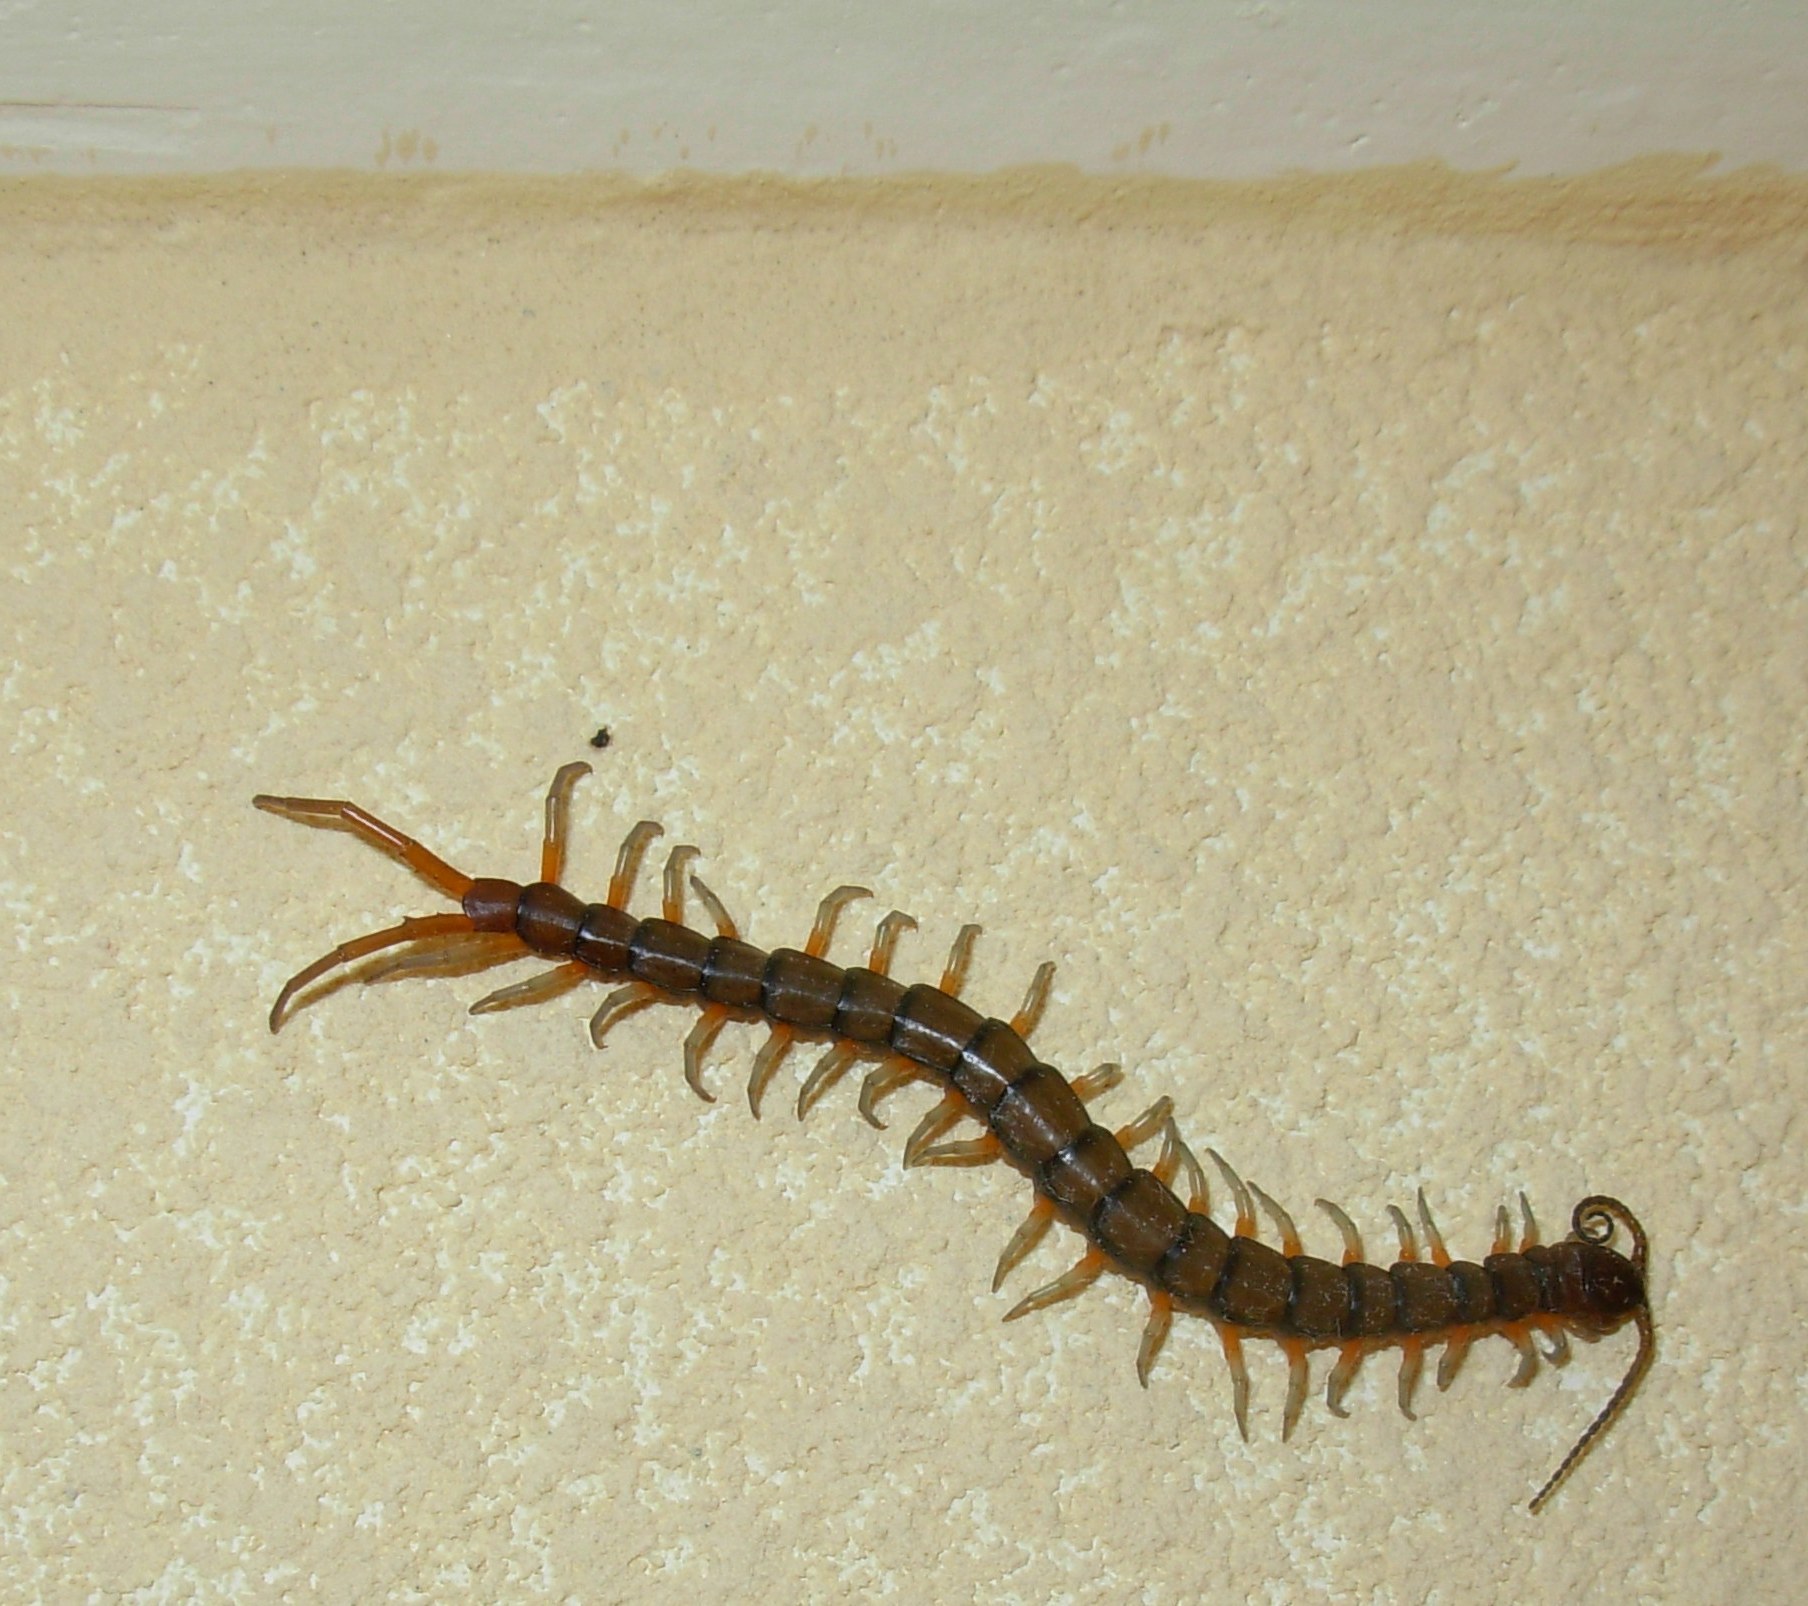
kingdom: Animalia
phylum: Arthropoda
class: Chilopoda
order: Scolopendromorpha
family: Scolopendridae
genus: Scolopendra
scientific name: Scolopendra subspinipes
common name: Centipede
